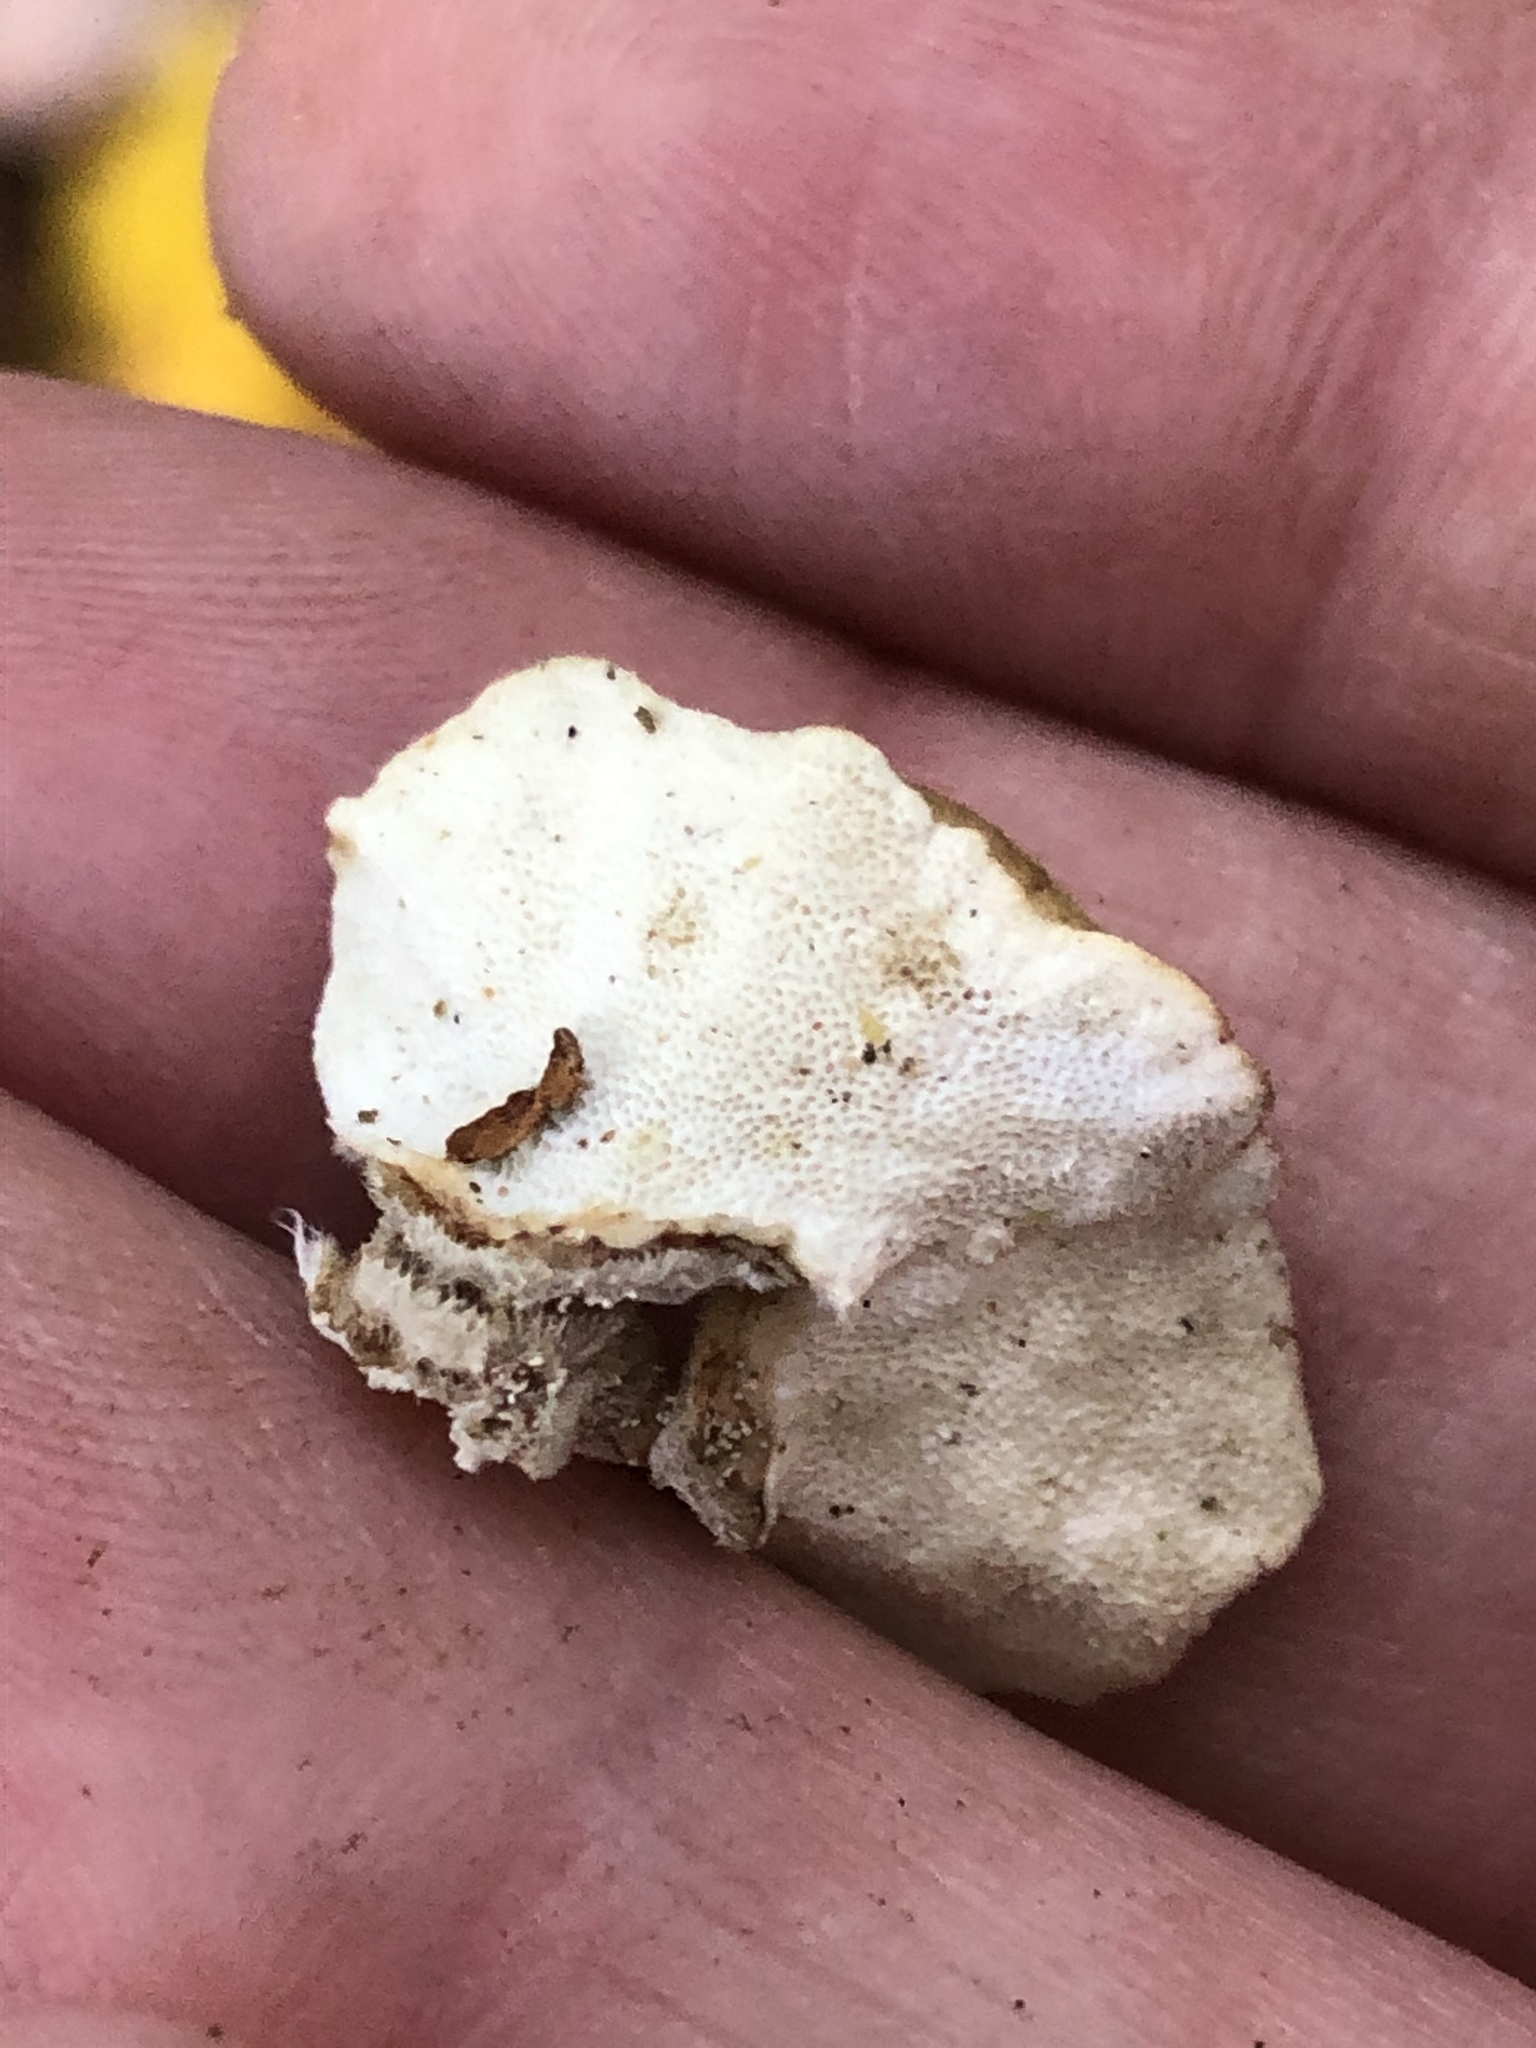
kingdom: Fungi
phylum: Basidiomycota
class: Agaricomycetes
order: Polyporales
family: Polyporaceae
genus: Trametes
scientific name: Trametes versicolor
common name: Turkeytail
